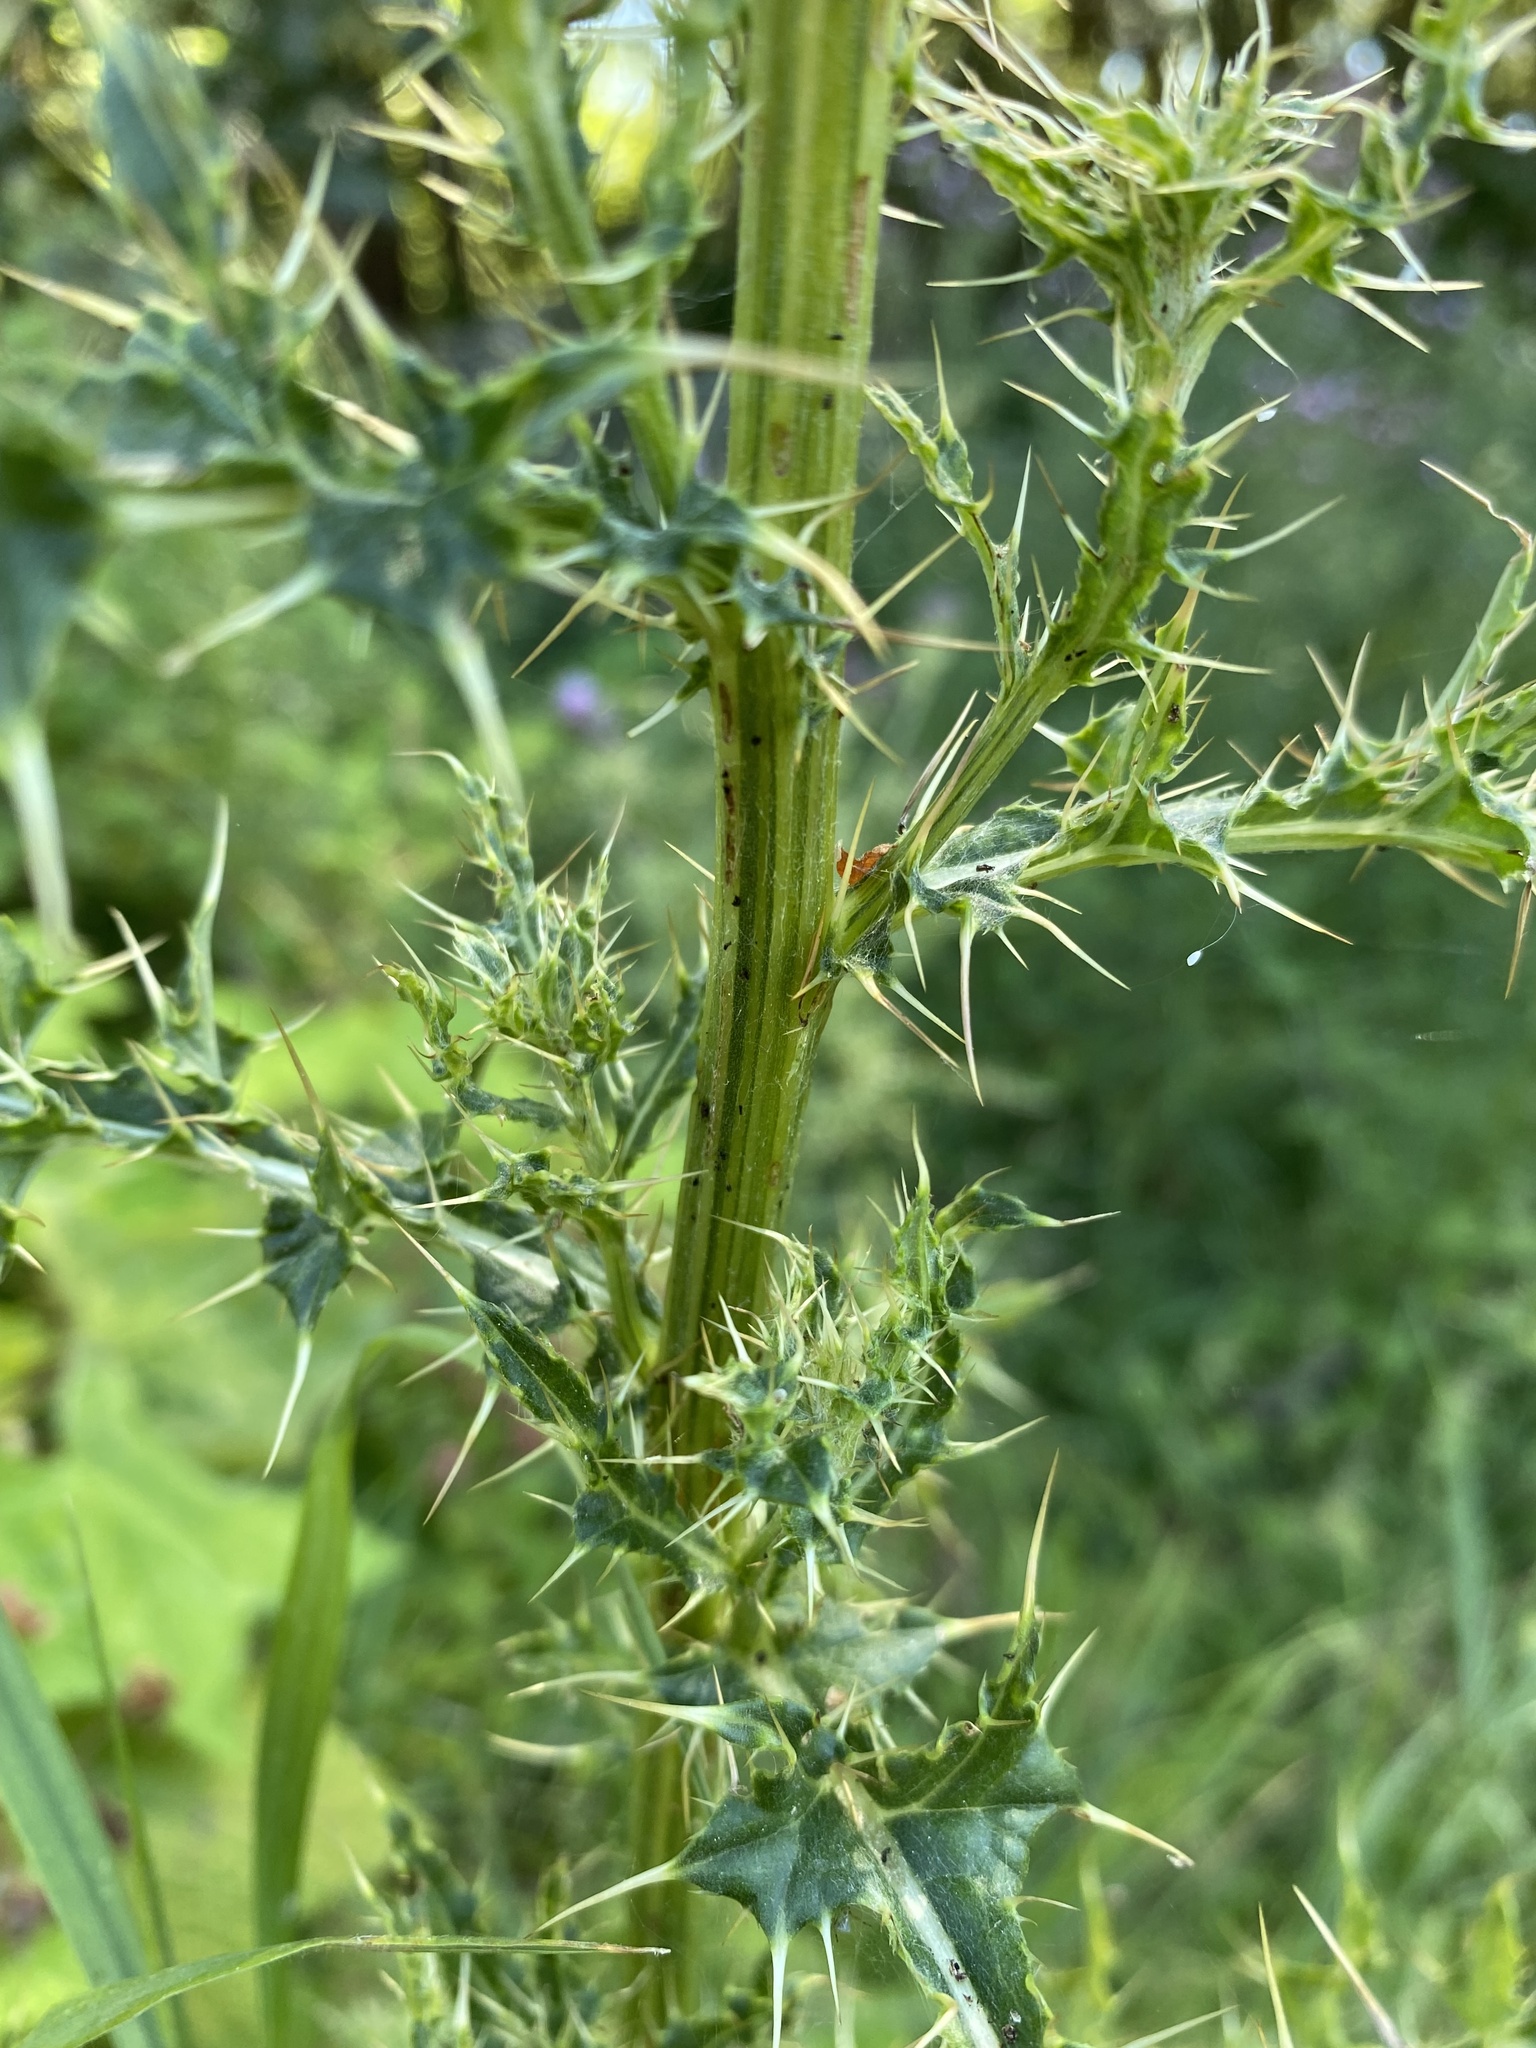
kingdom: Plantae
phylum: Tracheophyta
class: Magnoliopsida
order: Asterales
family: Asteraceae
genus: Cirsium
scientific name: Cirsium arvense
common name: Creeping thistle
